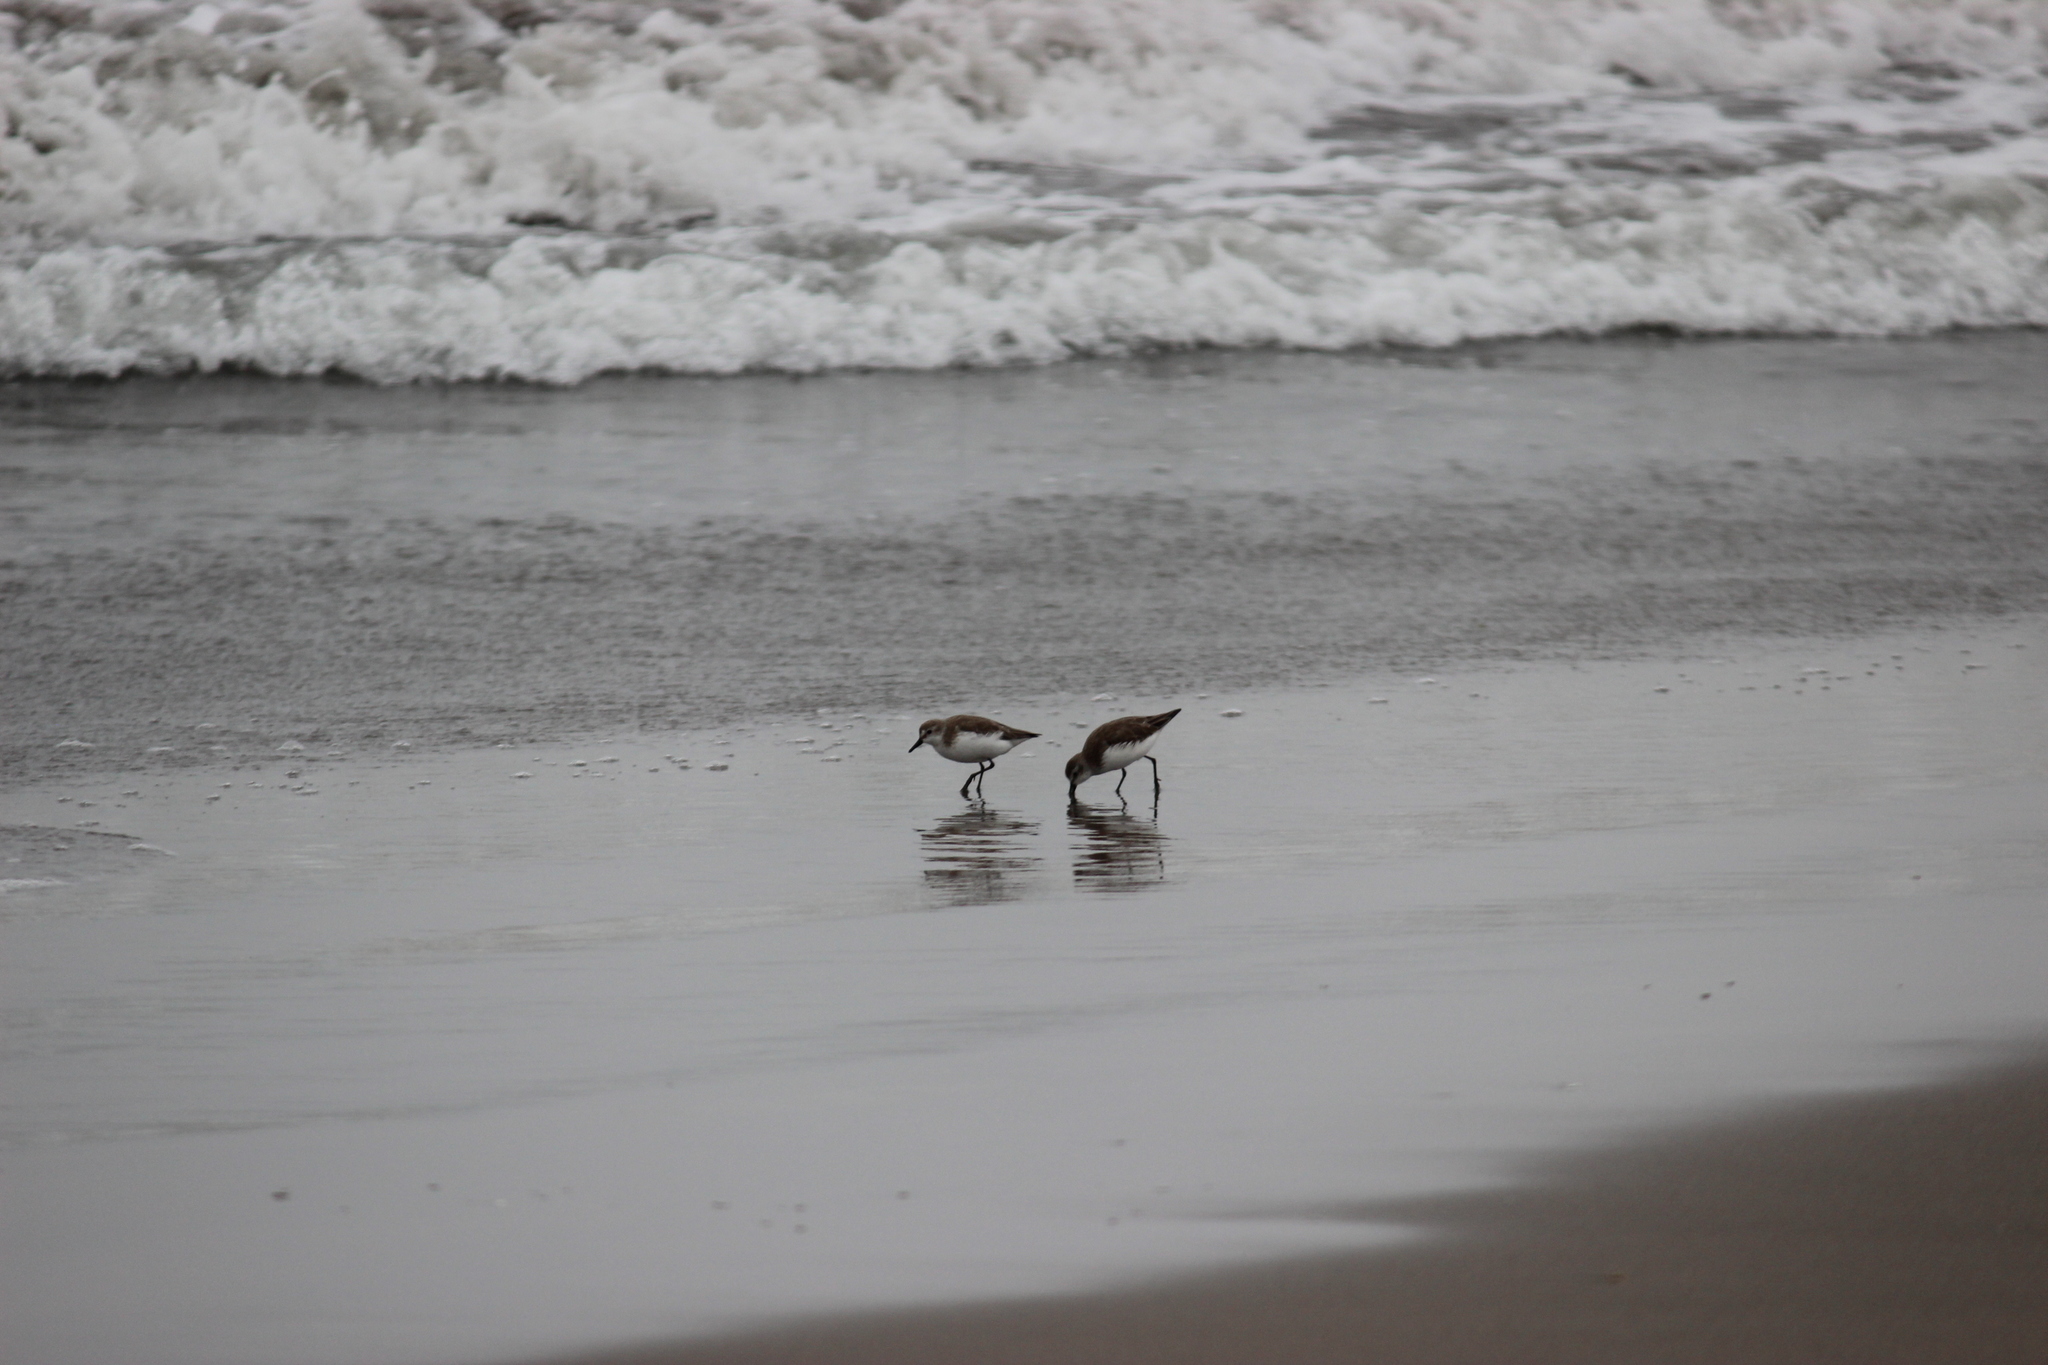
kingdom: Animalia
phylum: Chordata
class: Aves
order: Charadriiformes
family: Scolopacidae
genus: Calidris
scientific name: Calidris pusilla
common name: Semipalmated sandpiper
